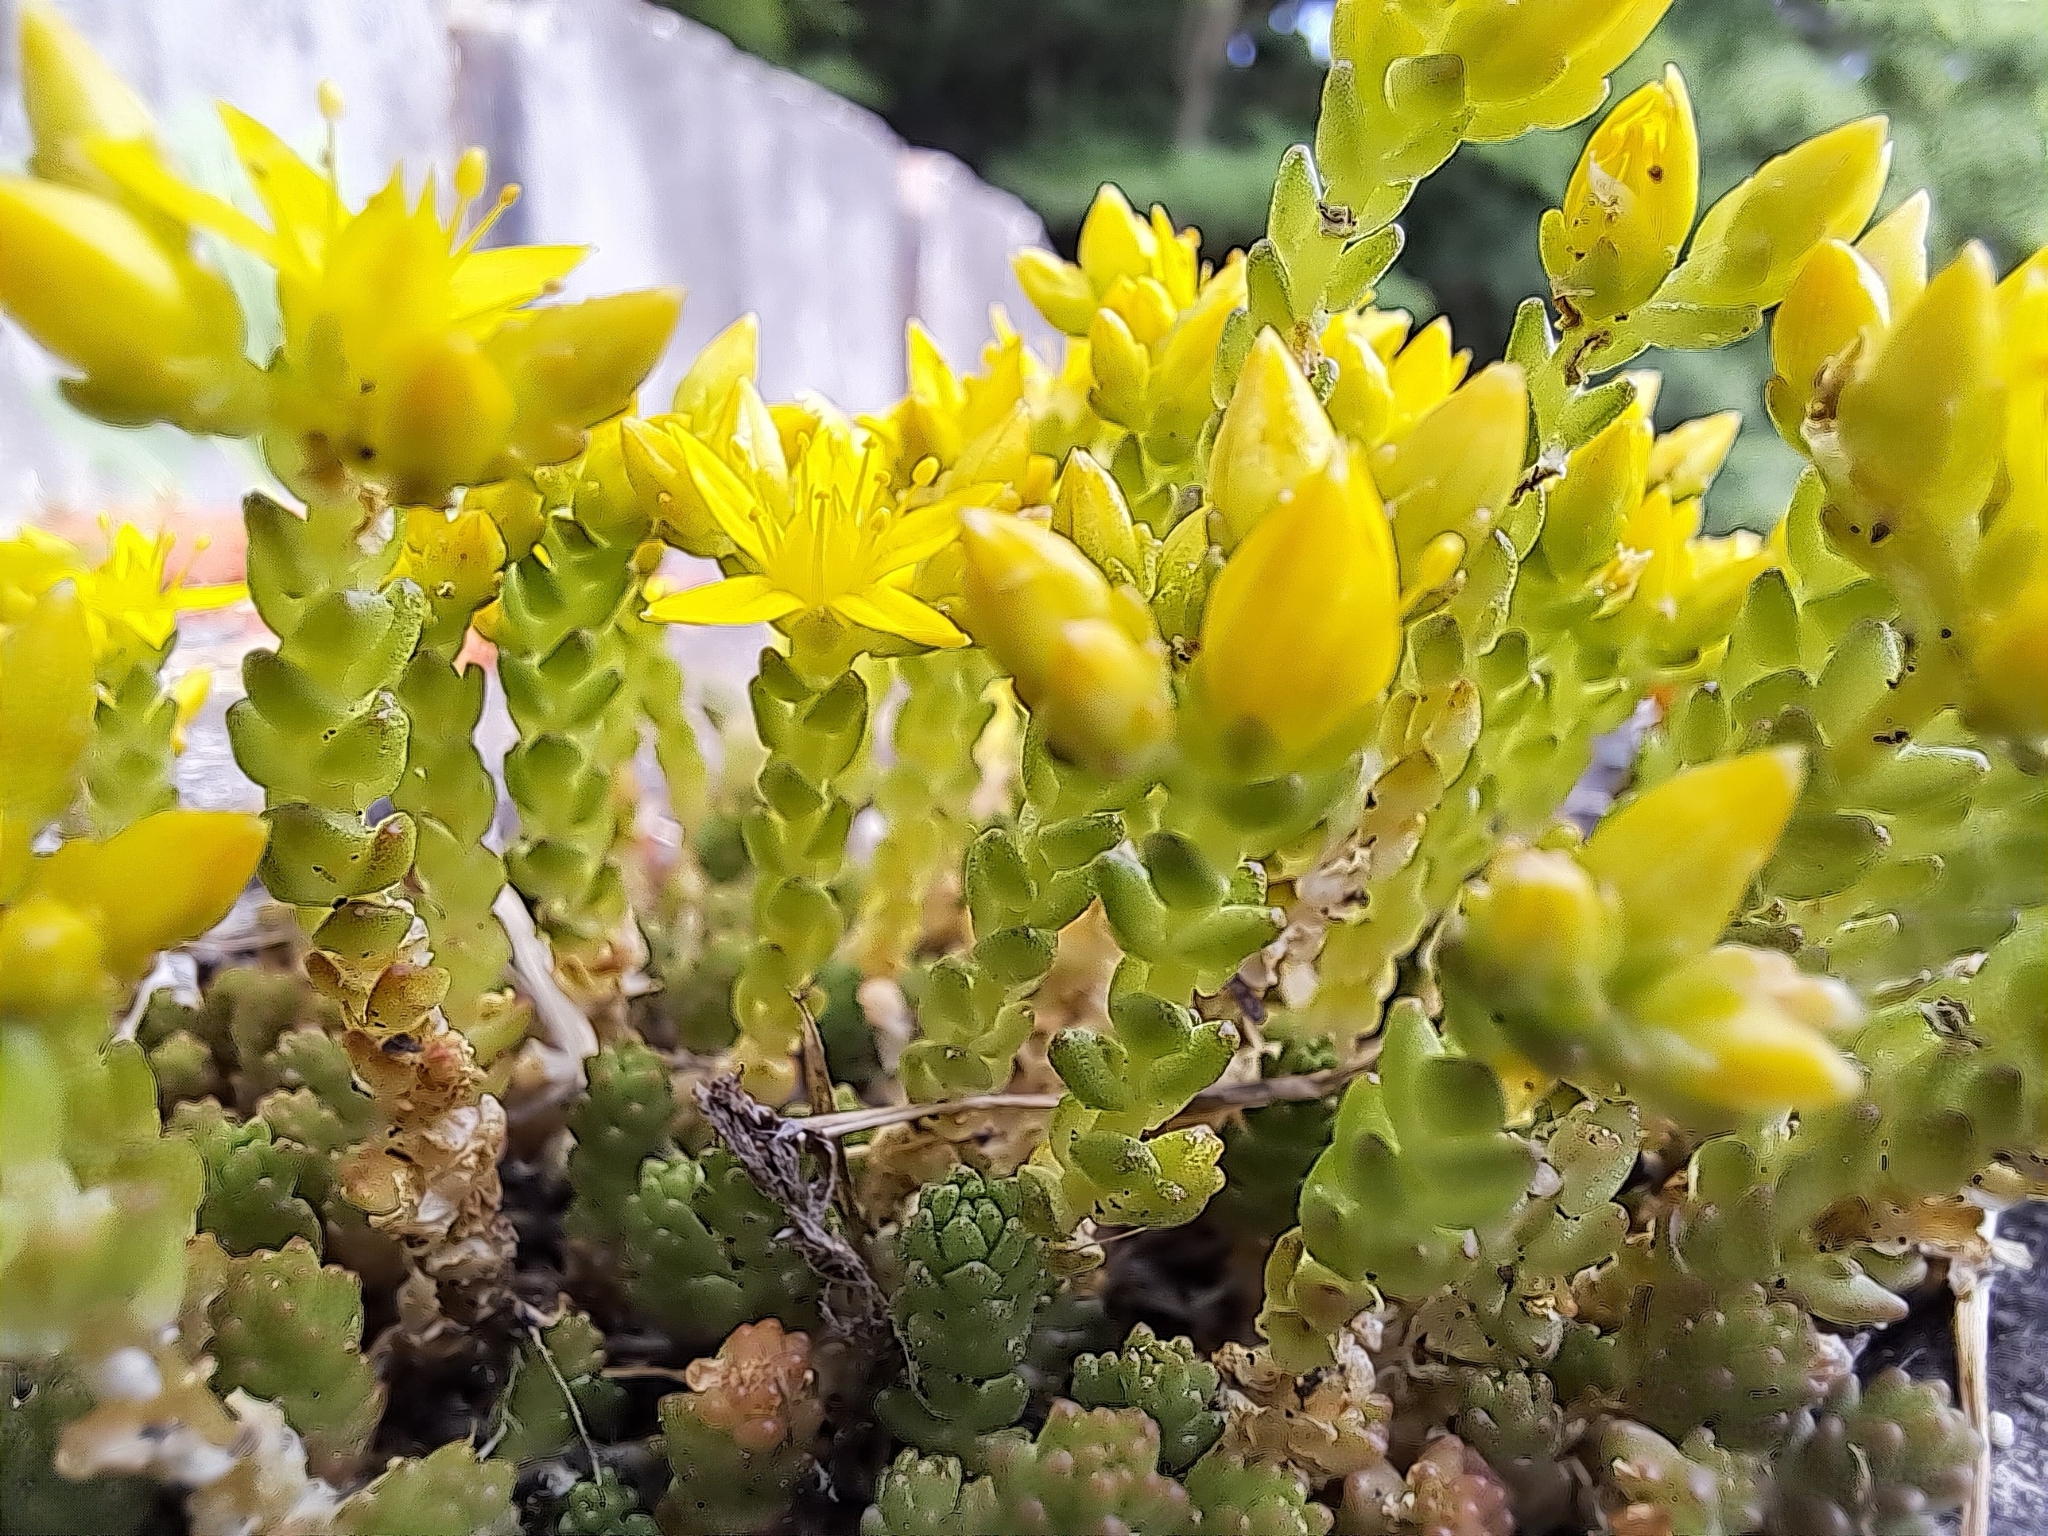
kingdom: Plantae
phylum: Tracheophyta
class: Magnoliopsida
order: Saxifragales
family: Crassulaceae
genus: Sedum
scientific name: Sedum acre
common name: Biting stonecrop
